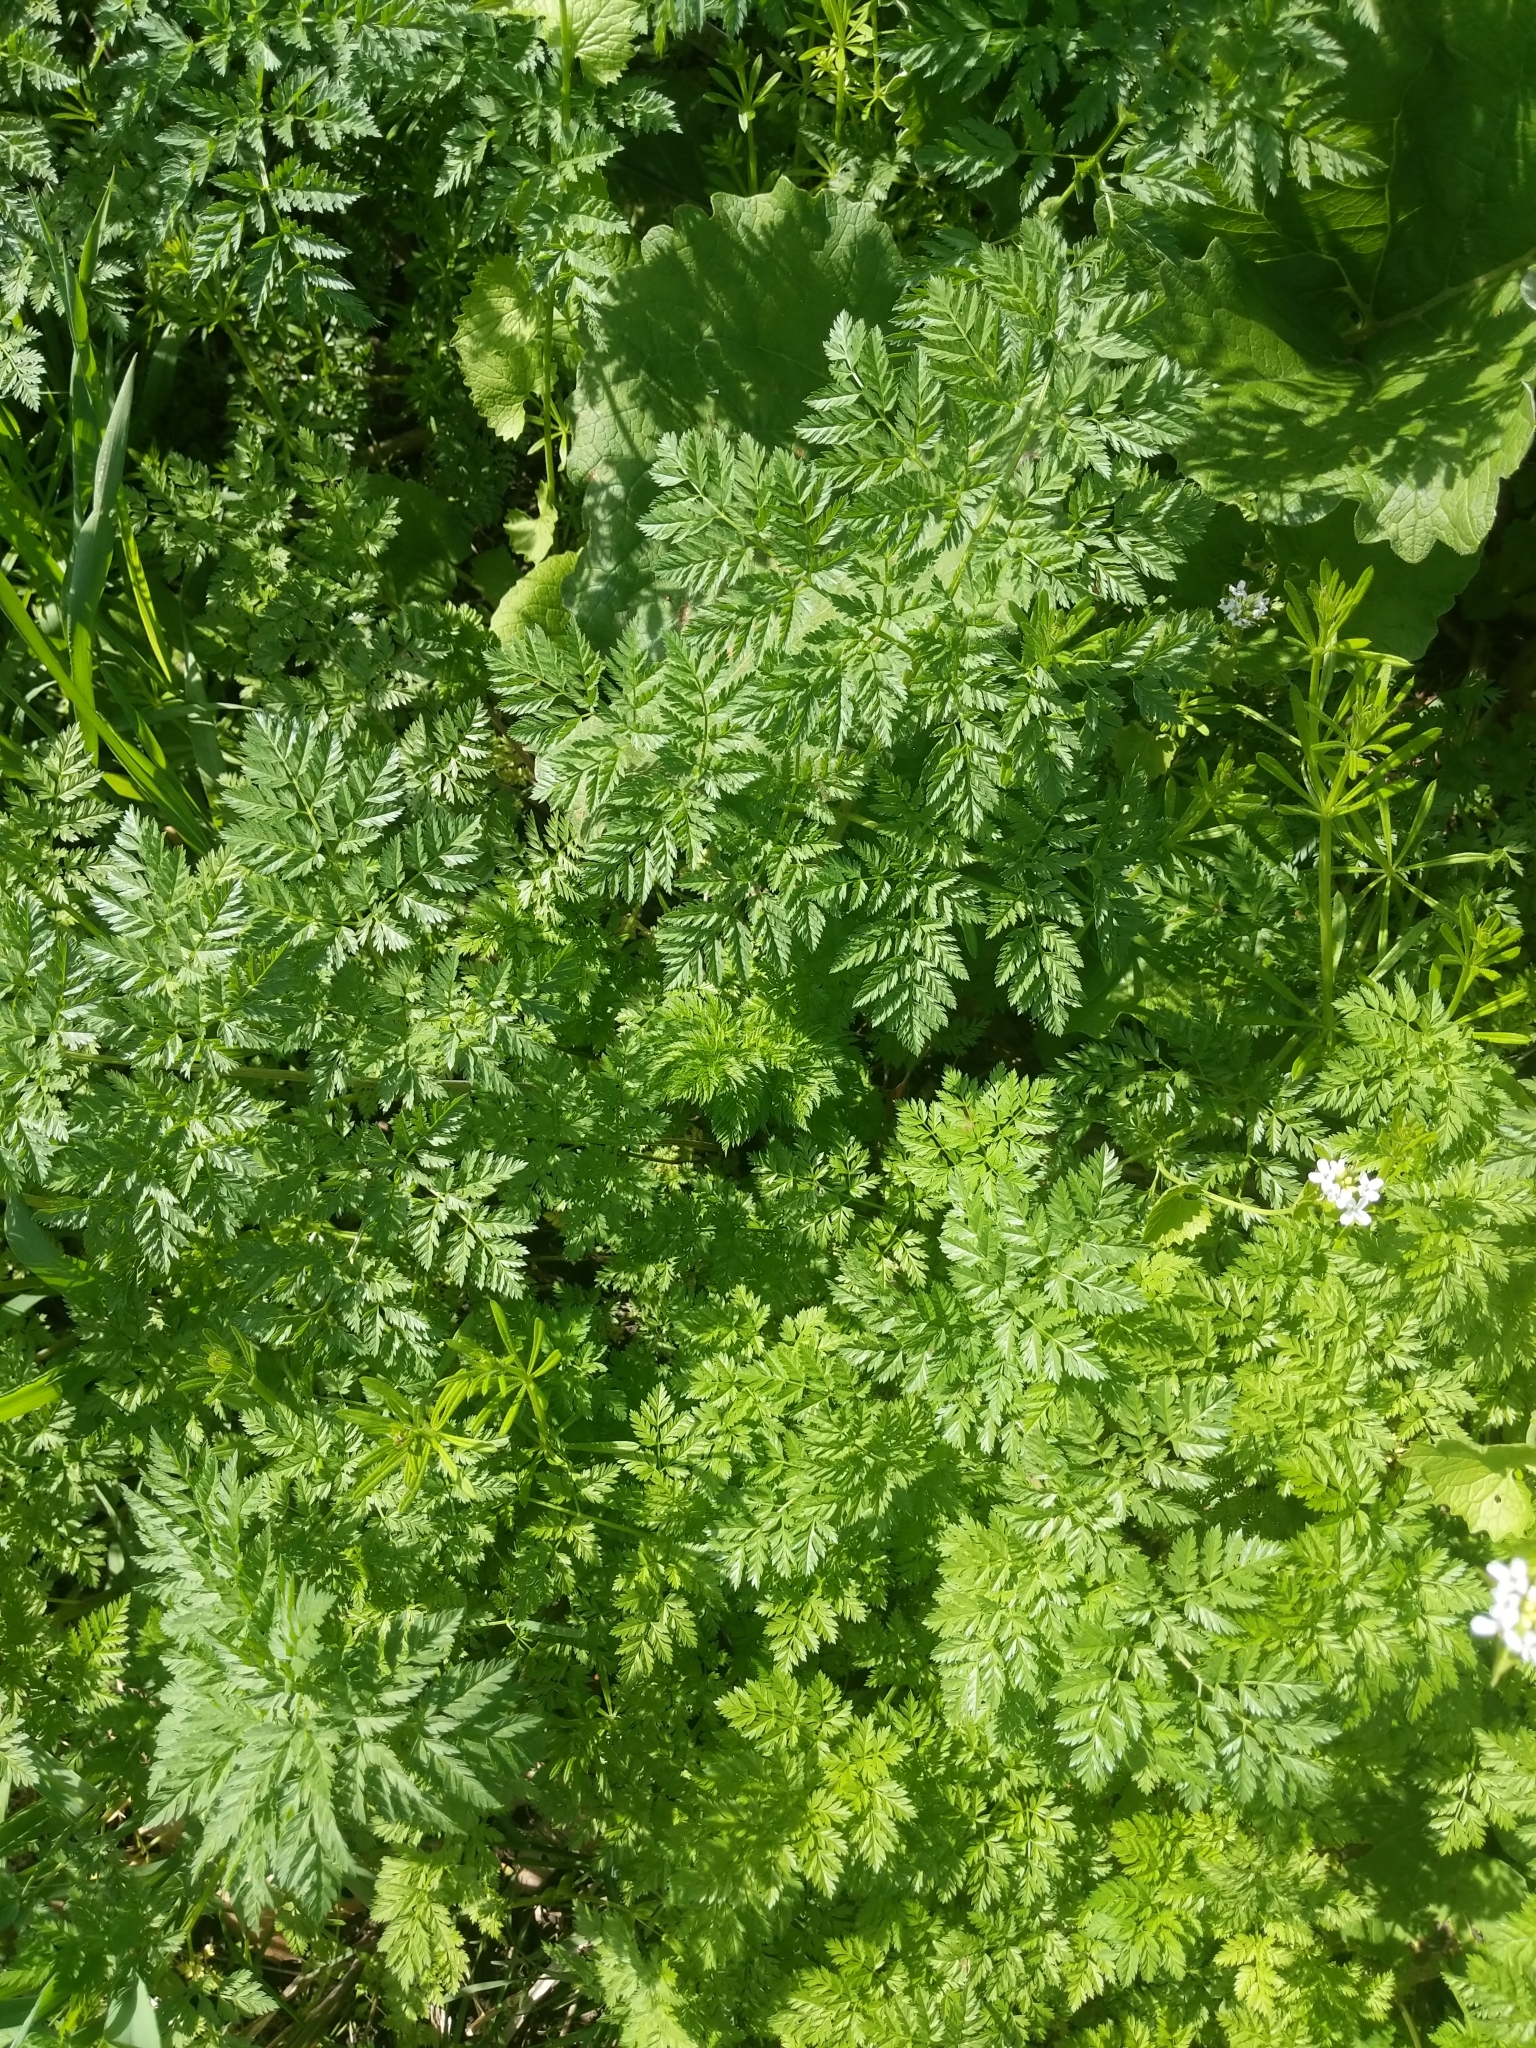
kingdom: Plantae
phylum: Tracheophyta
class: Magnoliopsida
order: Apiales
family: Apiaceae
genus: Conium
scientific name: Conium maculatum
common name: Hemlock
